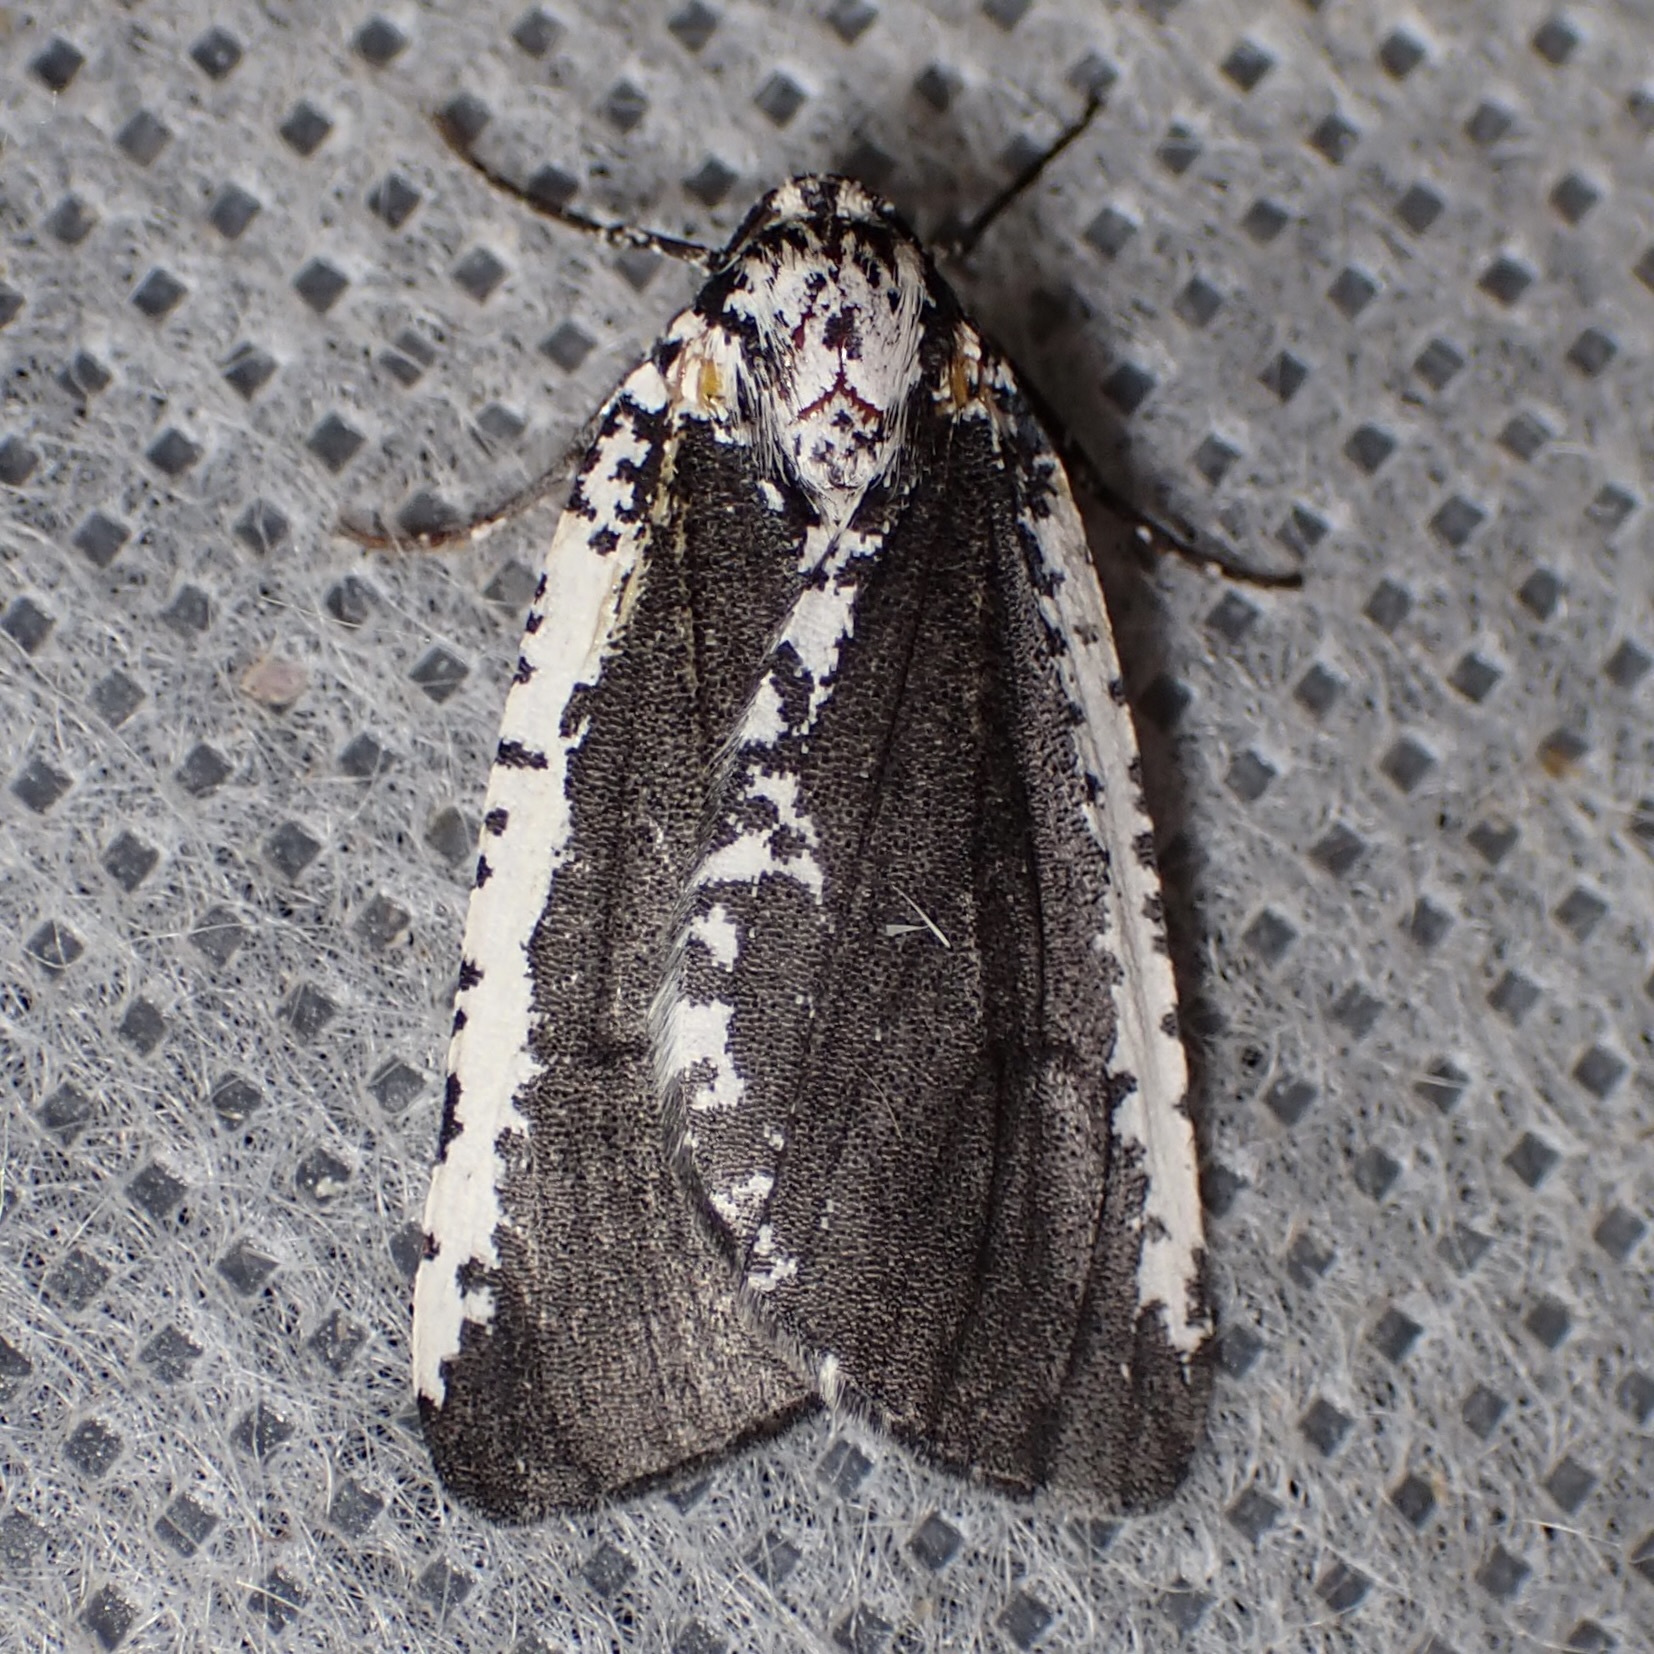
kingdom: Animalia
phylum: Arthropoda
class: Insecta
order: Lepidoptera
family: Geometridae
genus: Eucaterva
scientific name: Eucaterva variaria
